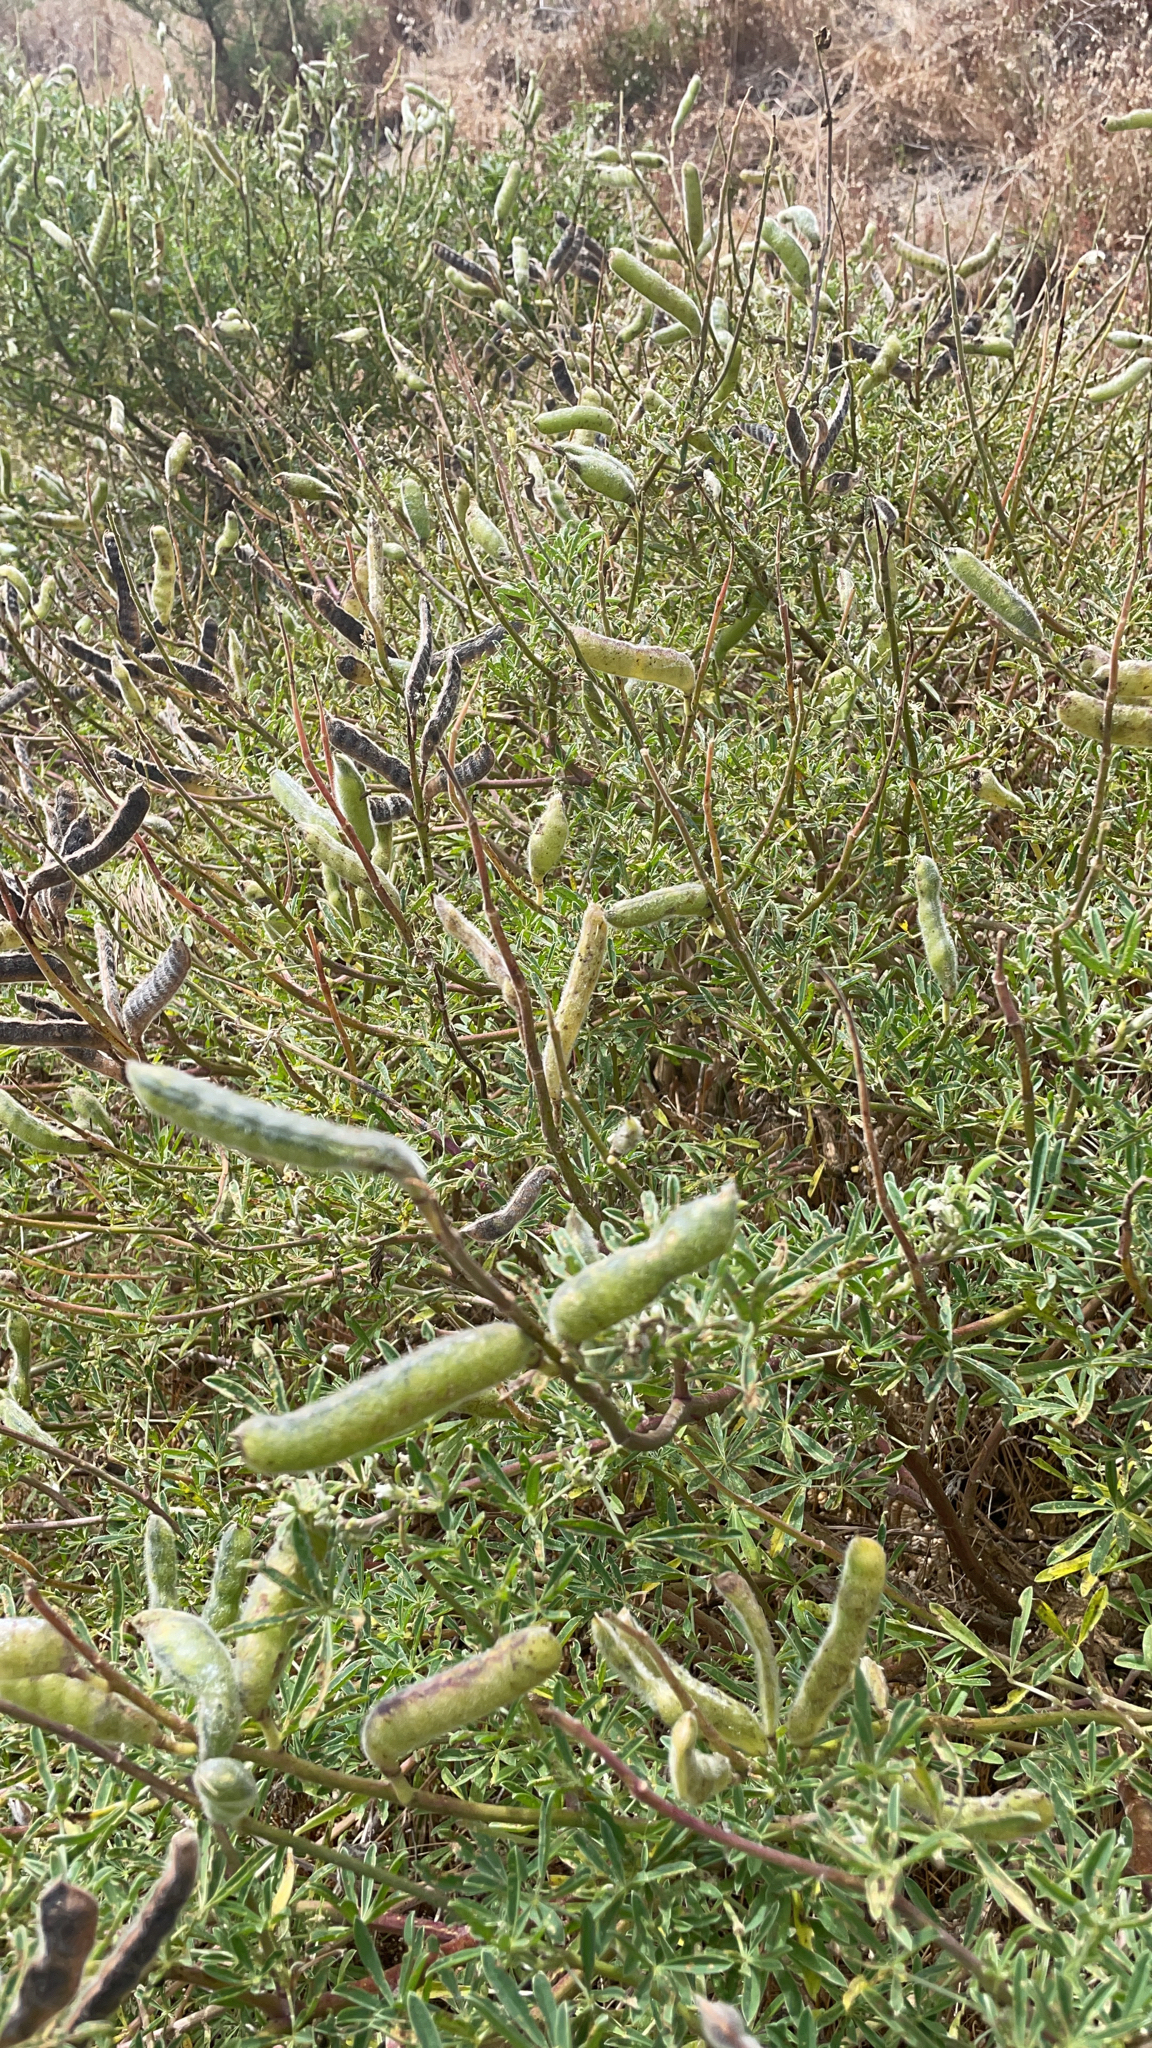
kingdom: Plantae
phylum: Tracheophyta
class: Magnoliopsida
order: Fabales
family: Fabaceae
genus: Lupinus
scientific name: Lupinus arboreus
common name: Yellow bush lupine
